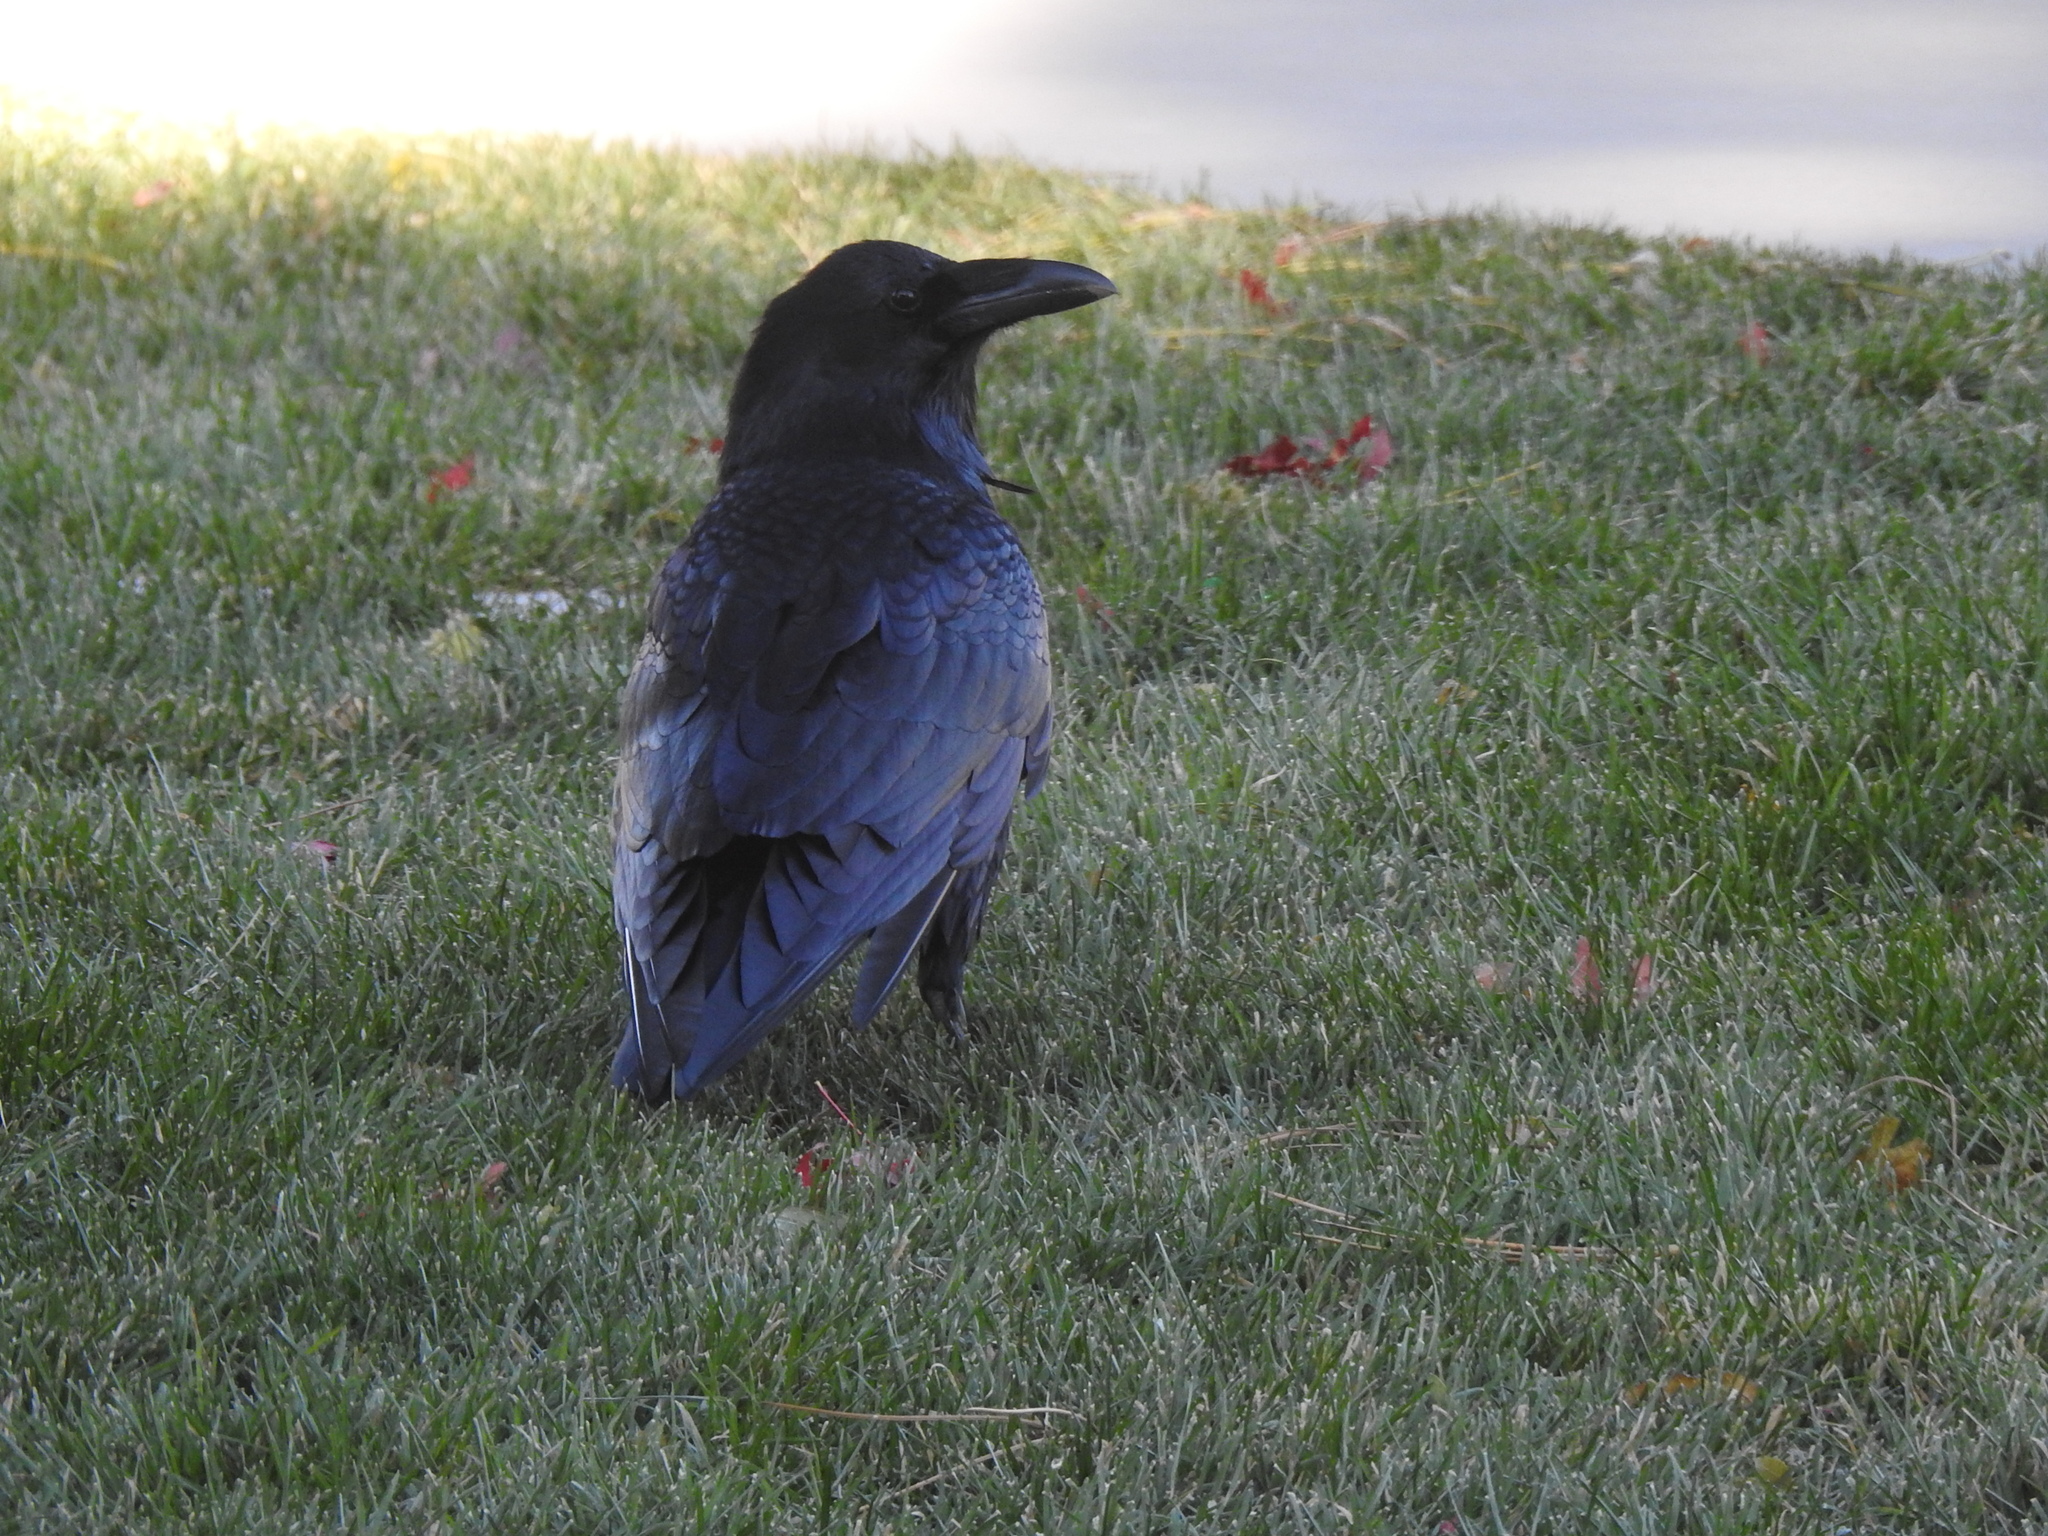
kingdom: Animalia
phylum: Chordata
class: Aves
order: Passeriformes
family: Corvidae
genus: Corvus
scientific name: Corvus corax
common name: Common raven
